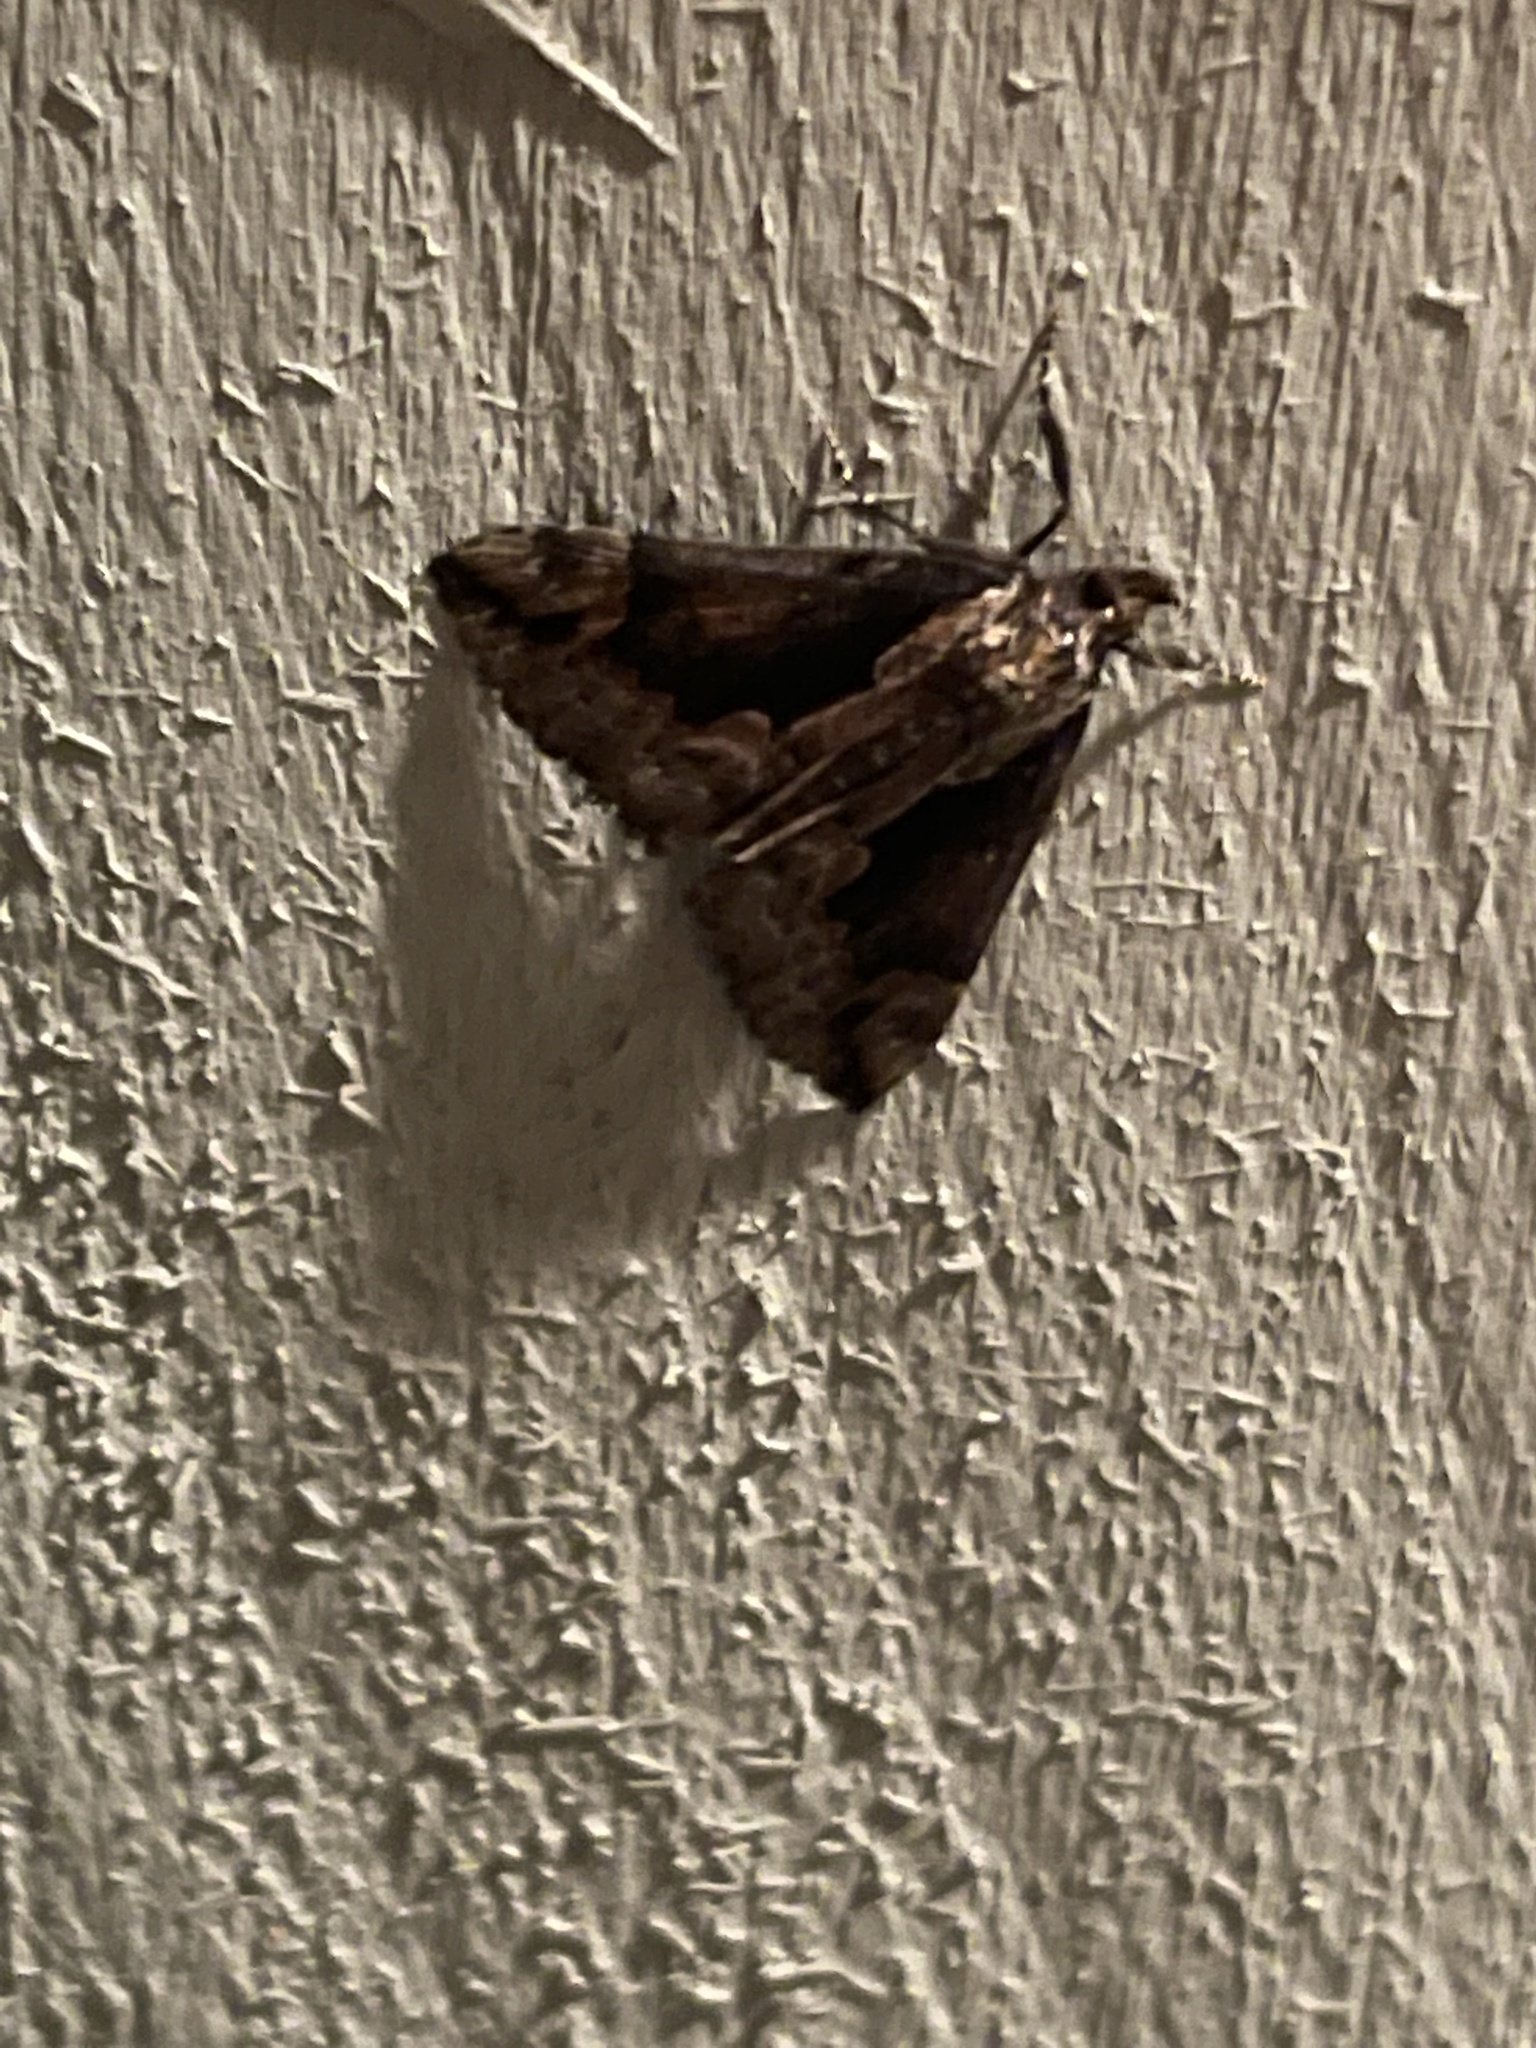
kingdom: Animalia
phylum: Arthropoda
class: Insecta
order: Lepidoptera
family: Erebidae
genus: Hypena
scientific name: Hypena baltimoralis
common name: Baltimore snout
